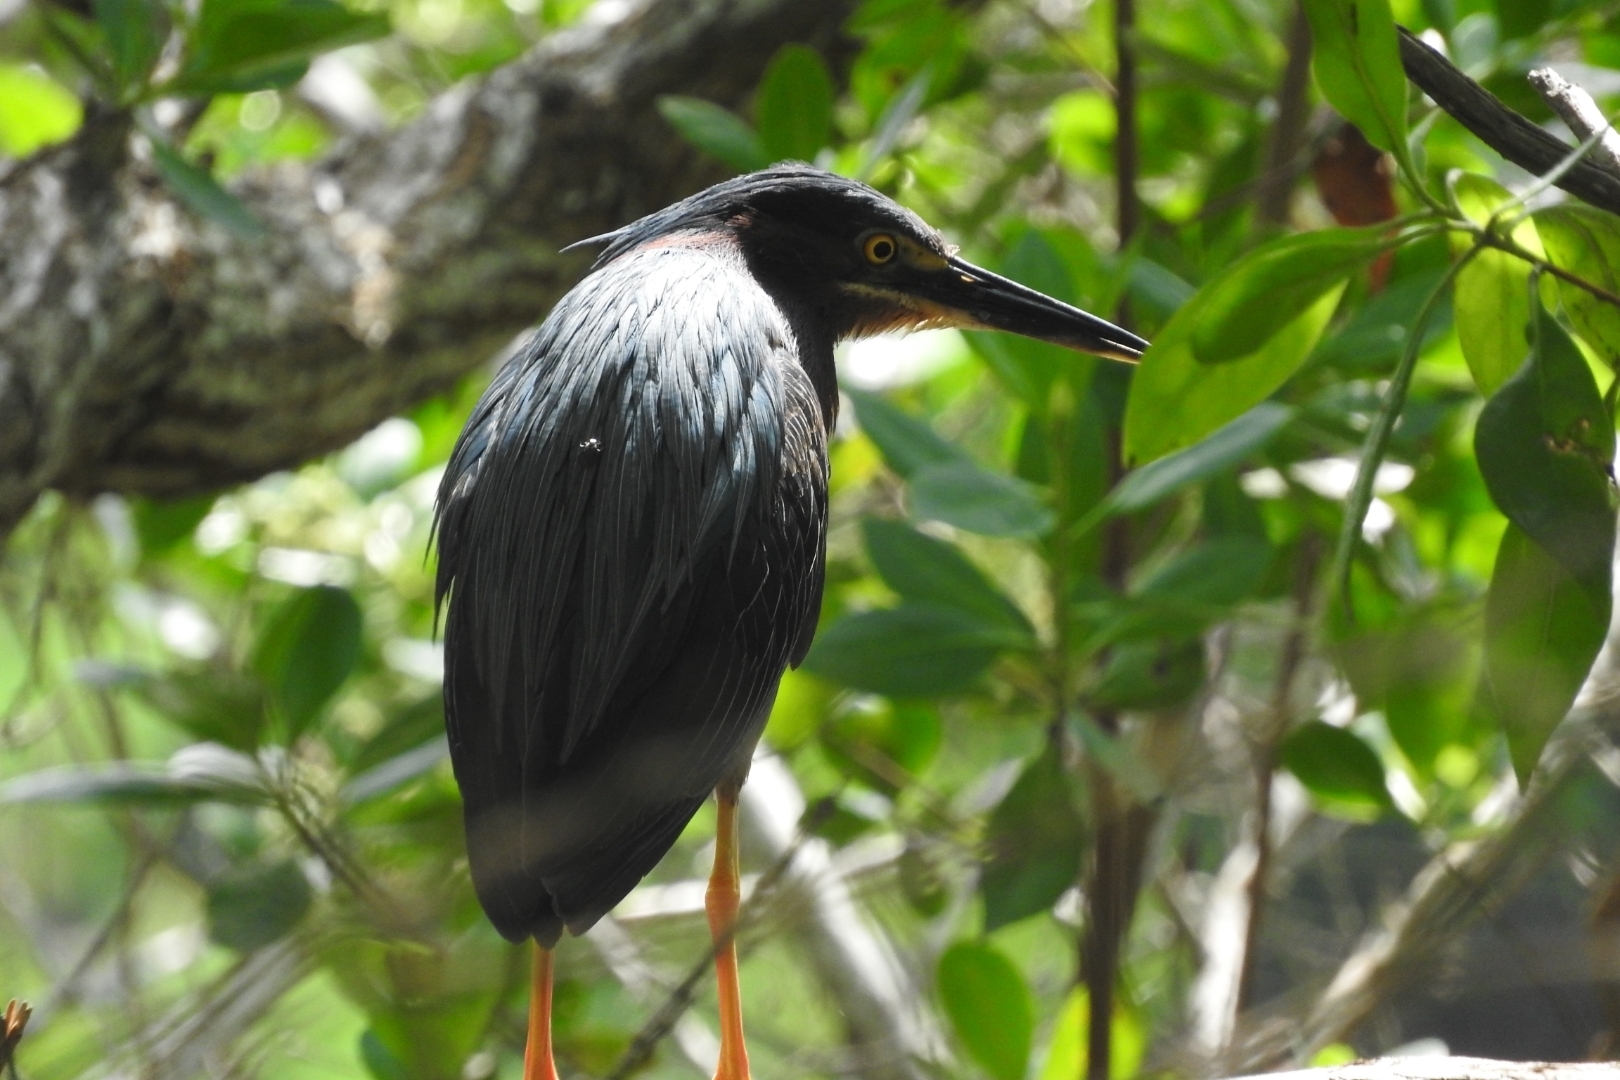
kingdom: Animalia
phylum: Chordata
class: Aves
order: Pelecaniformes
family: Ardeidae
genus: Butorides
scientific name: Butorides virescens
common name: Green heron
